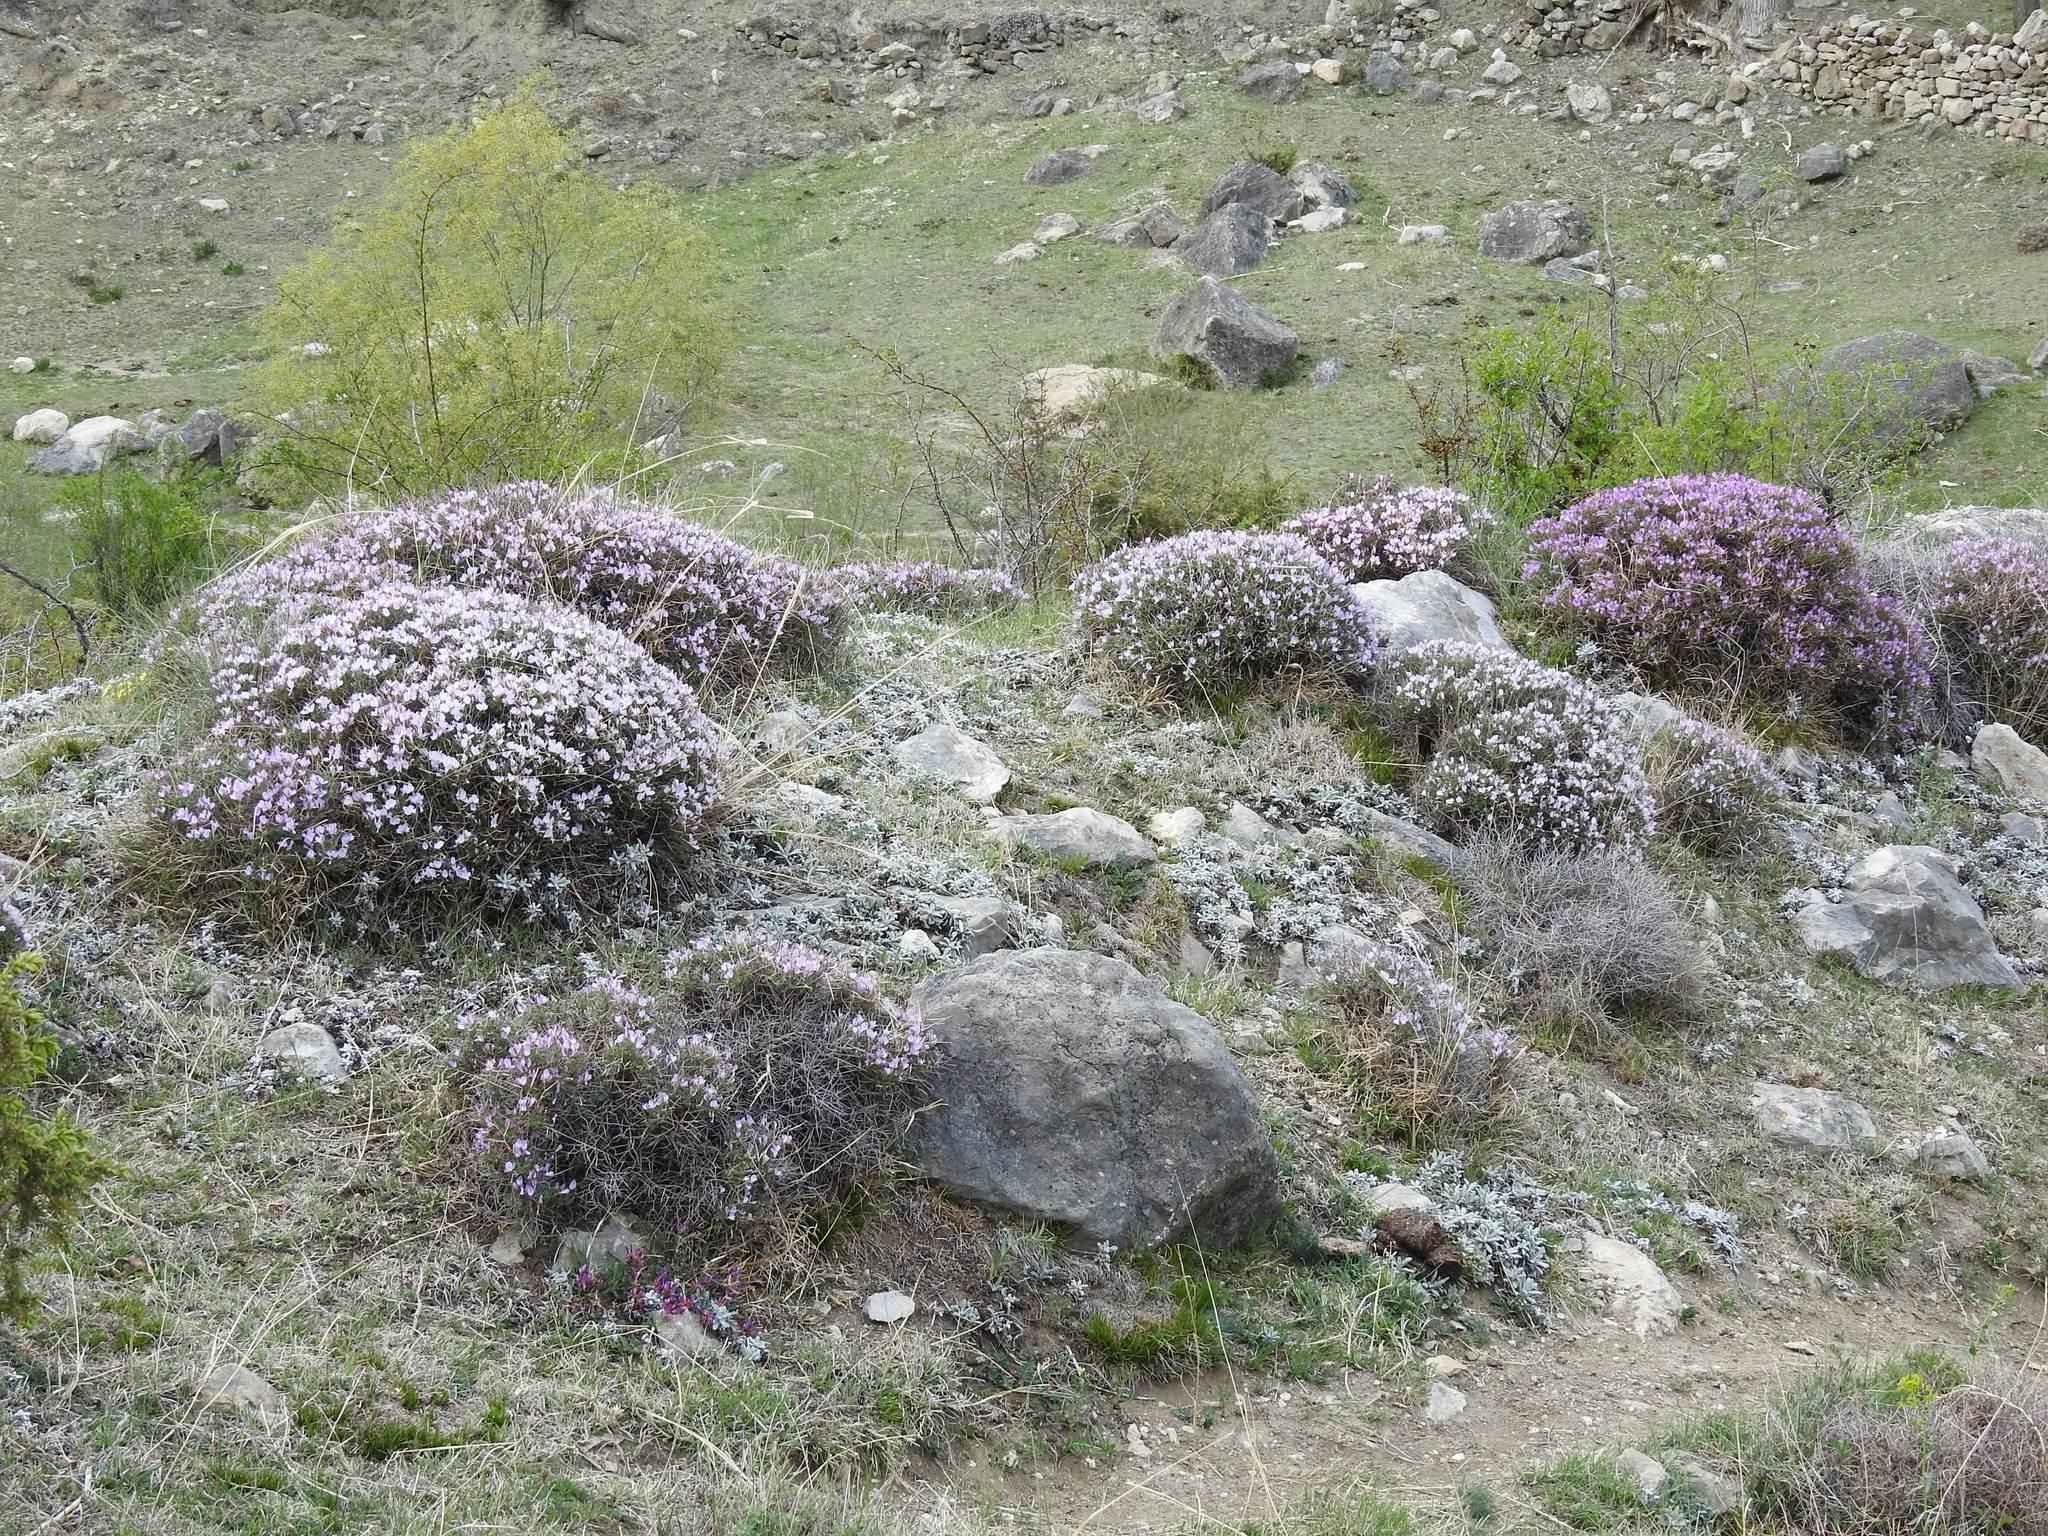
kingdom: Plantae
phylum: Tracheophyta
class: Magnoliopsida
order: Fabales
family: Fabaceae
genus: Onobrychis
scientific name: Onobrychis cornuta
